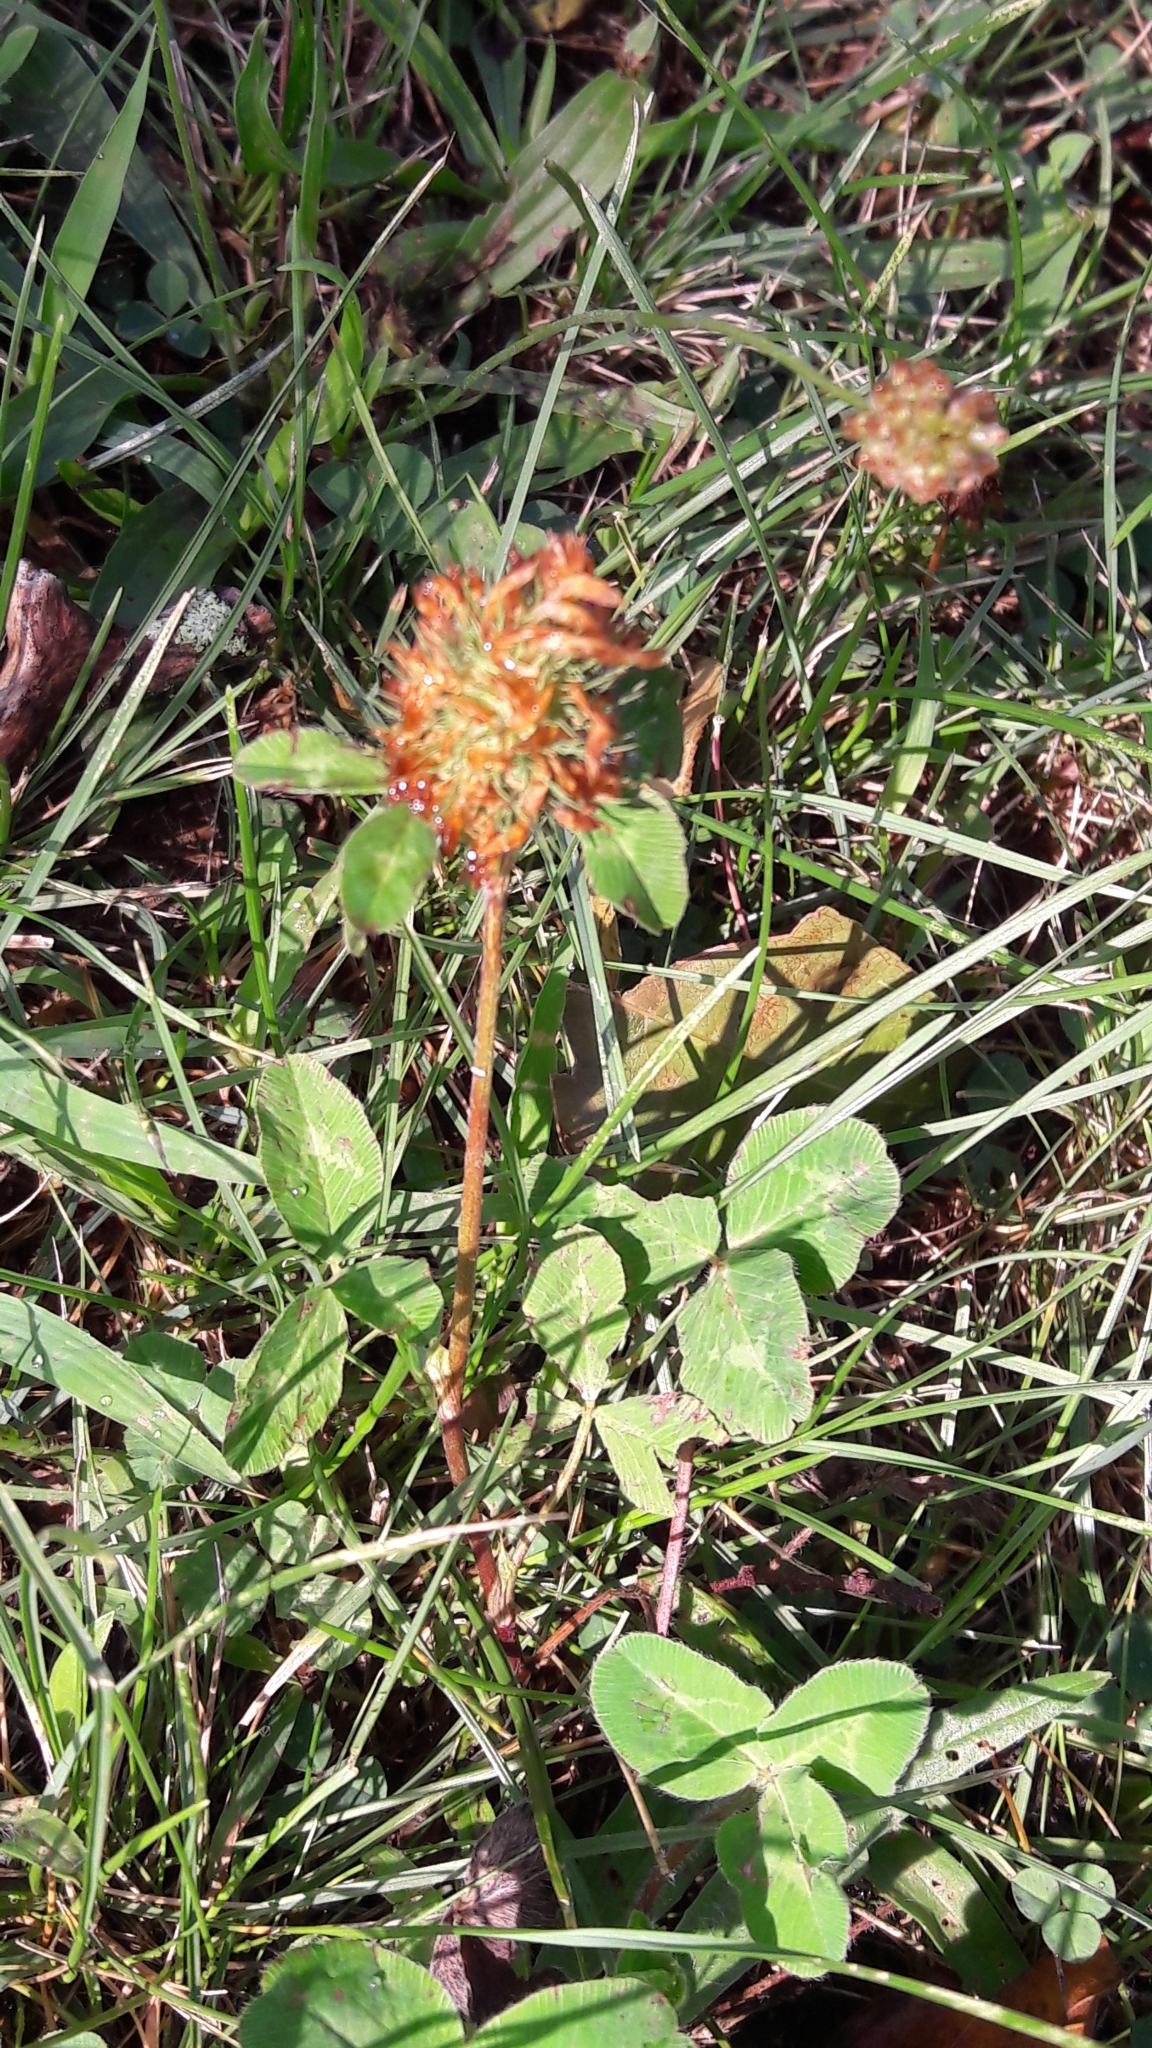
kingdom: Plantae
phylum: Tracheophyta
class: Magnoliopsida
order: Fabales
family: Fabaceae
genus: Trifolium
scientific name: Trifolium pratense
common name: Red clover
